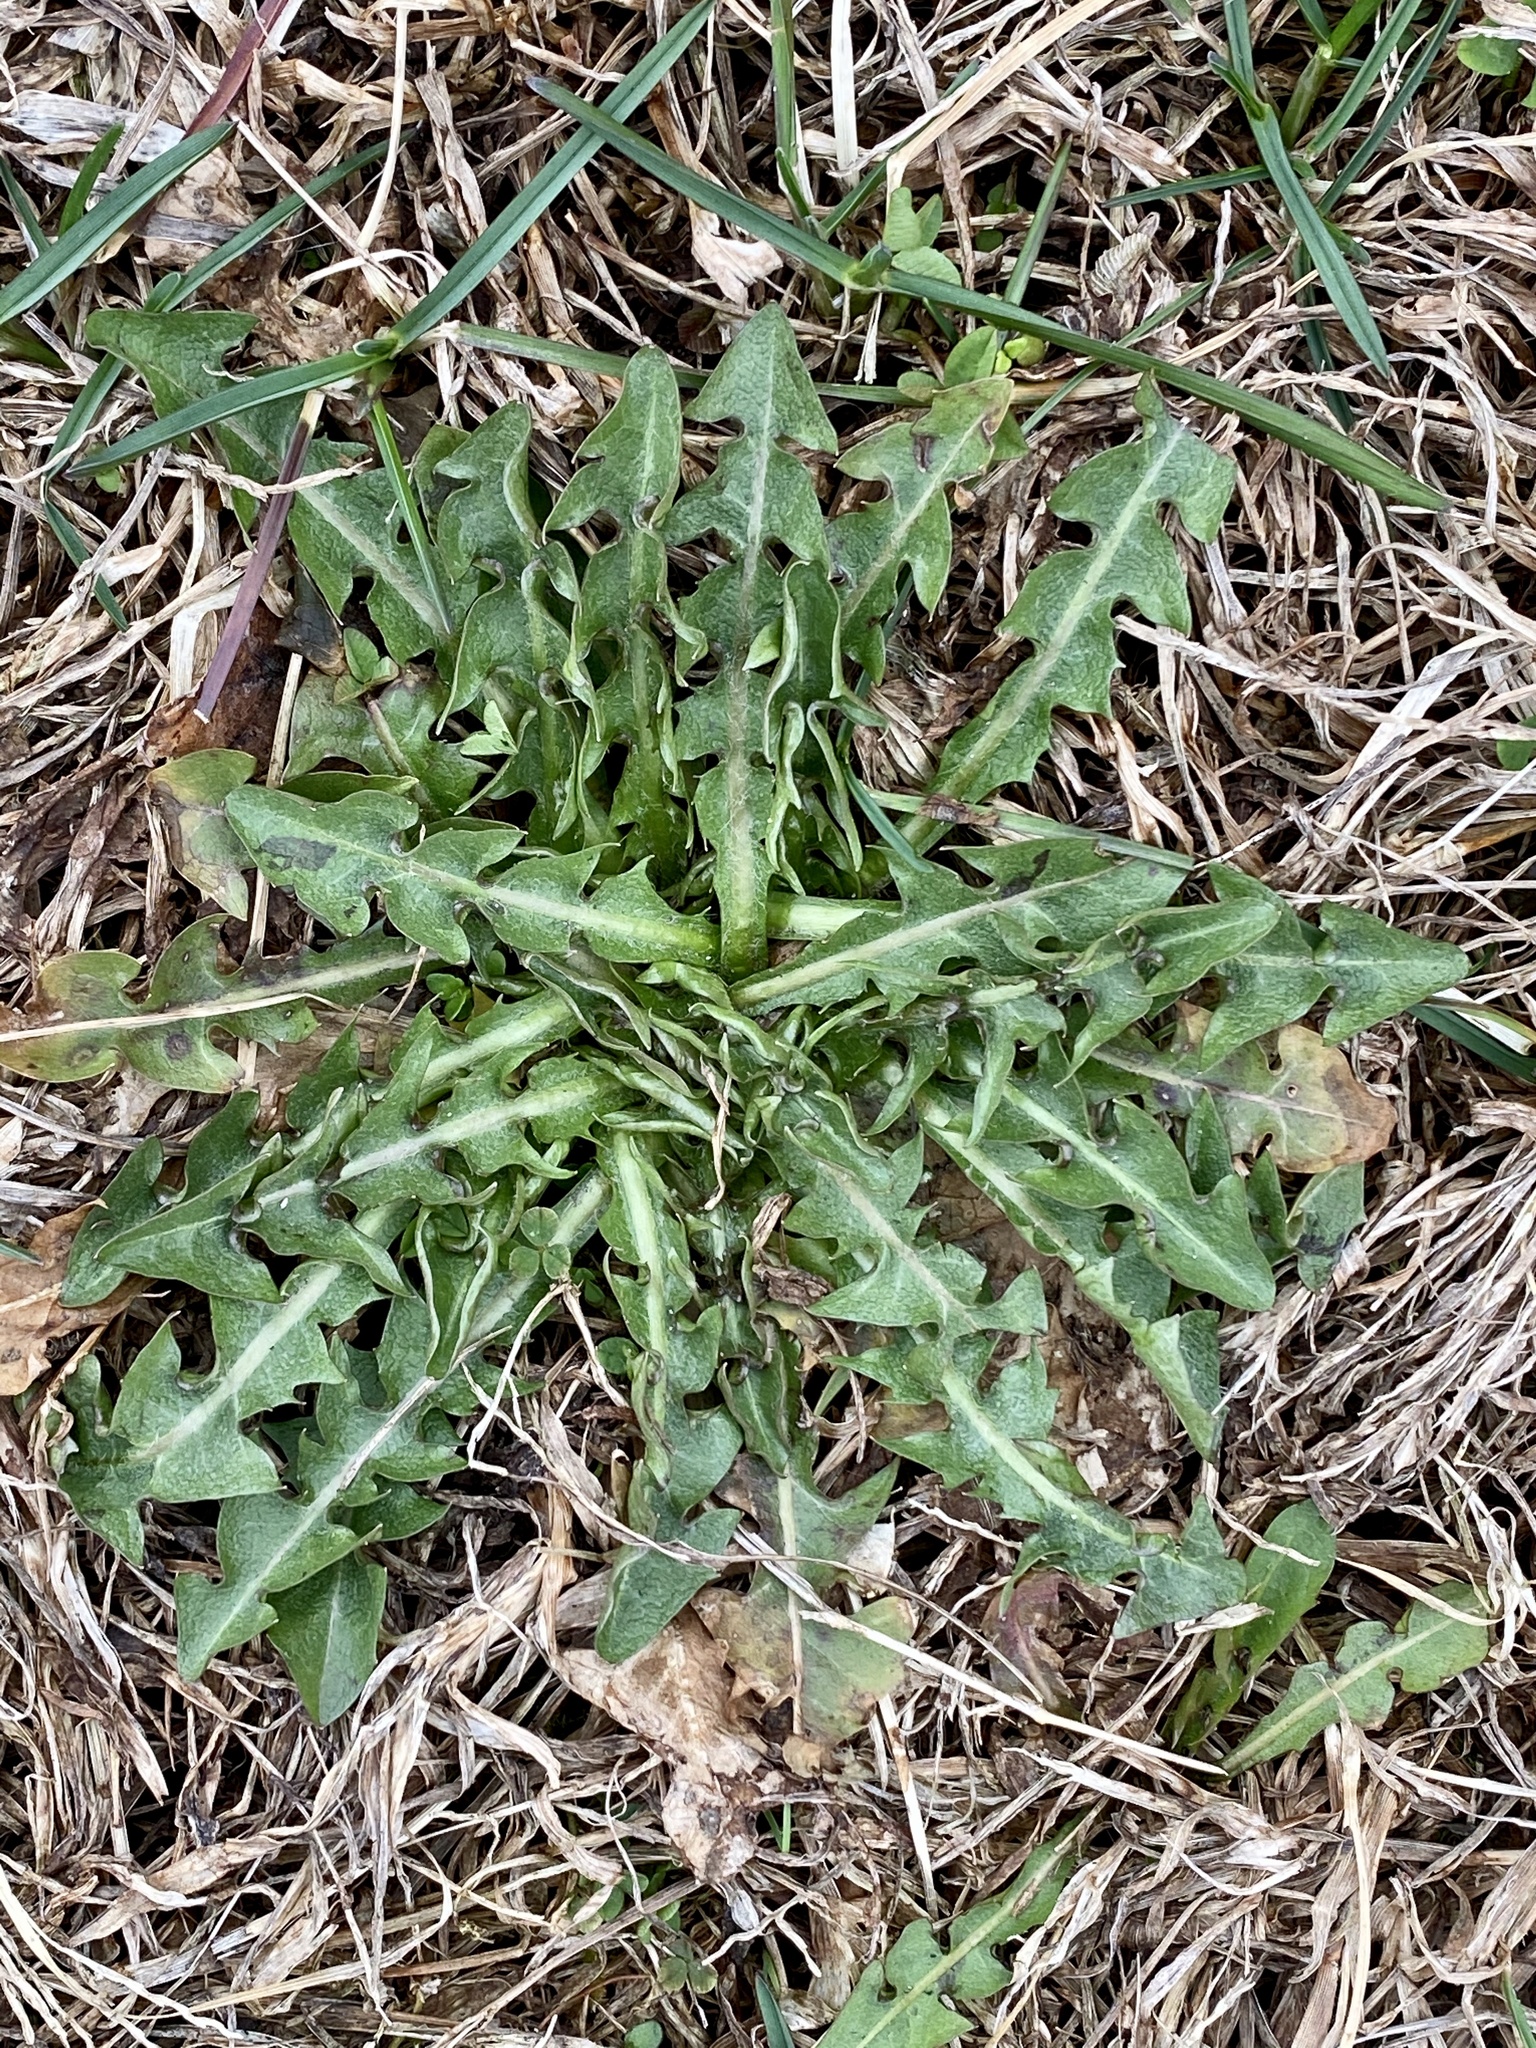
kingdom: Plantae
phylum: Tracheophyta
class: Magnoliopsida
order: Asterales
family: Asteraceae
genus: Taraxacum
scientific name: Taraxacum officinale
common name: Common dandelion
